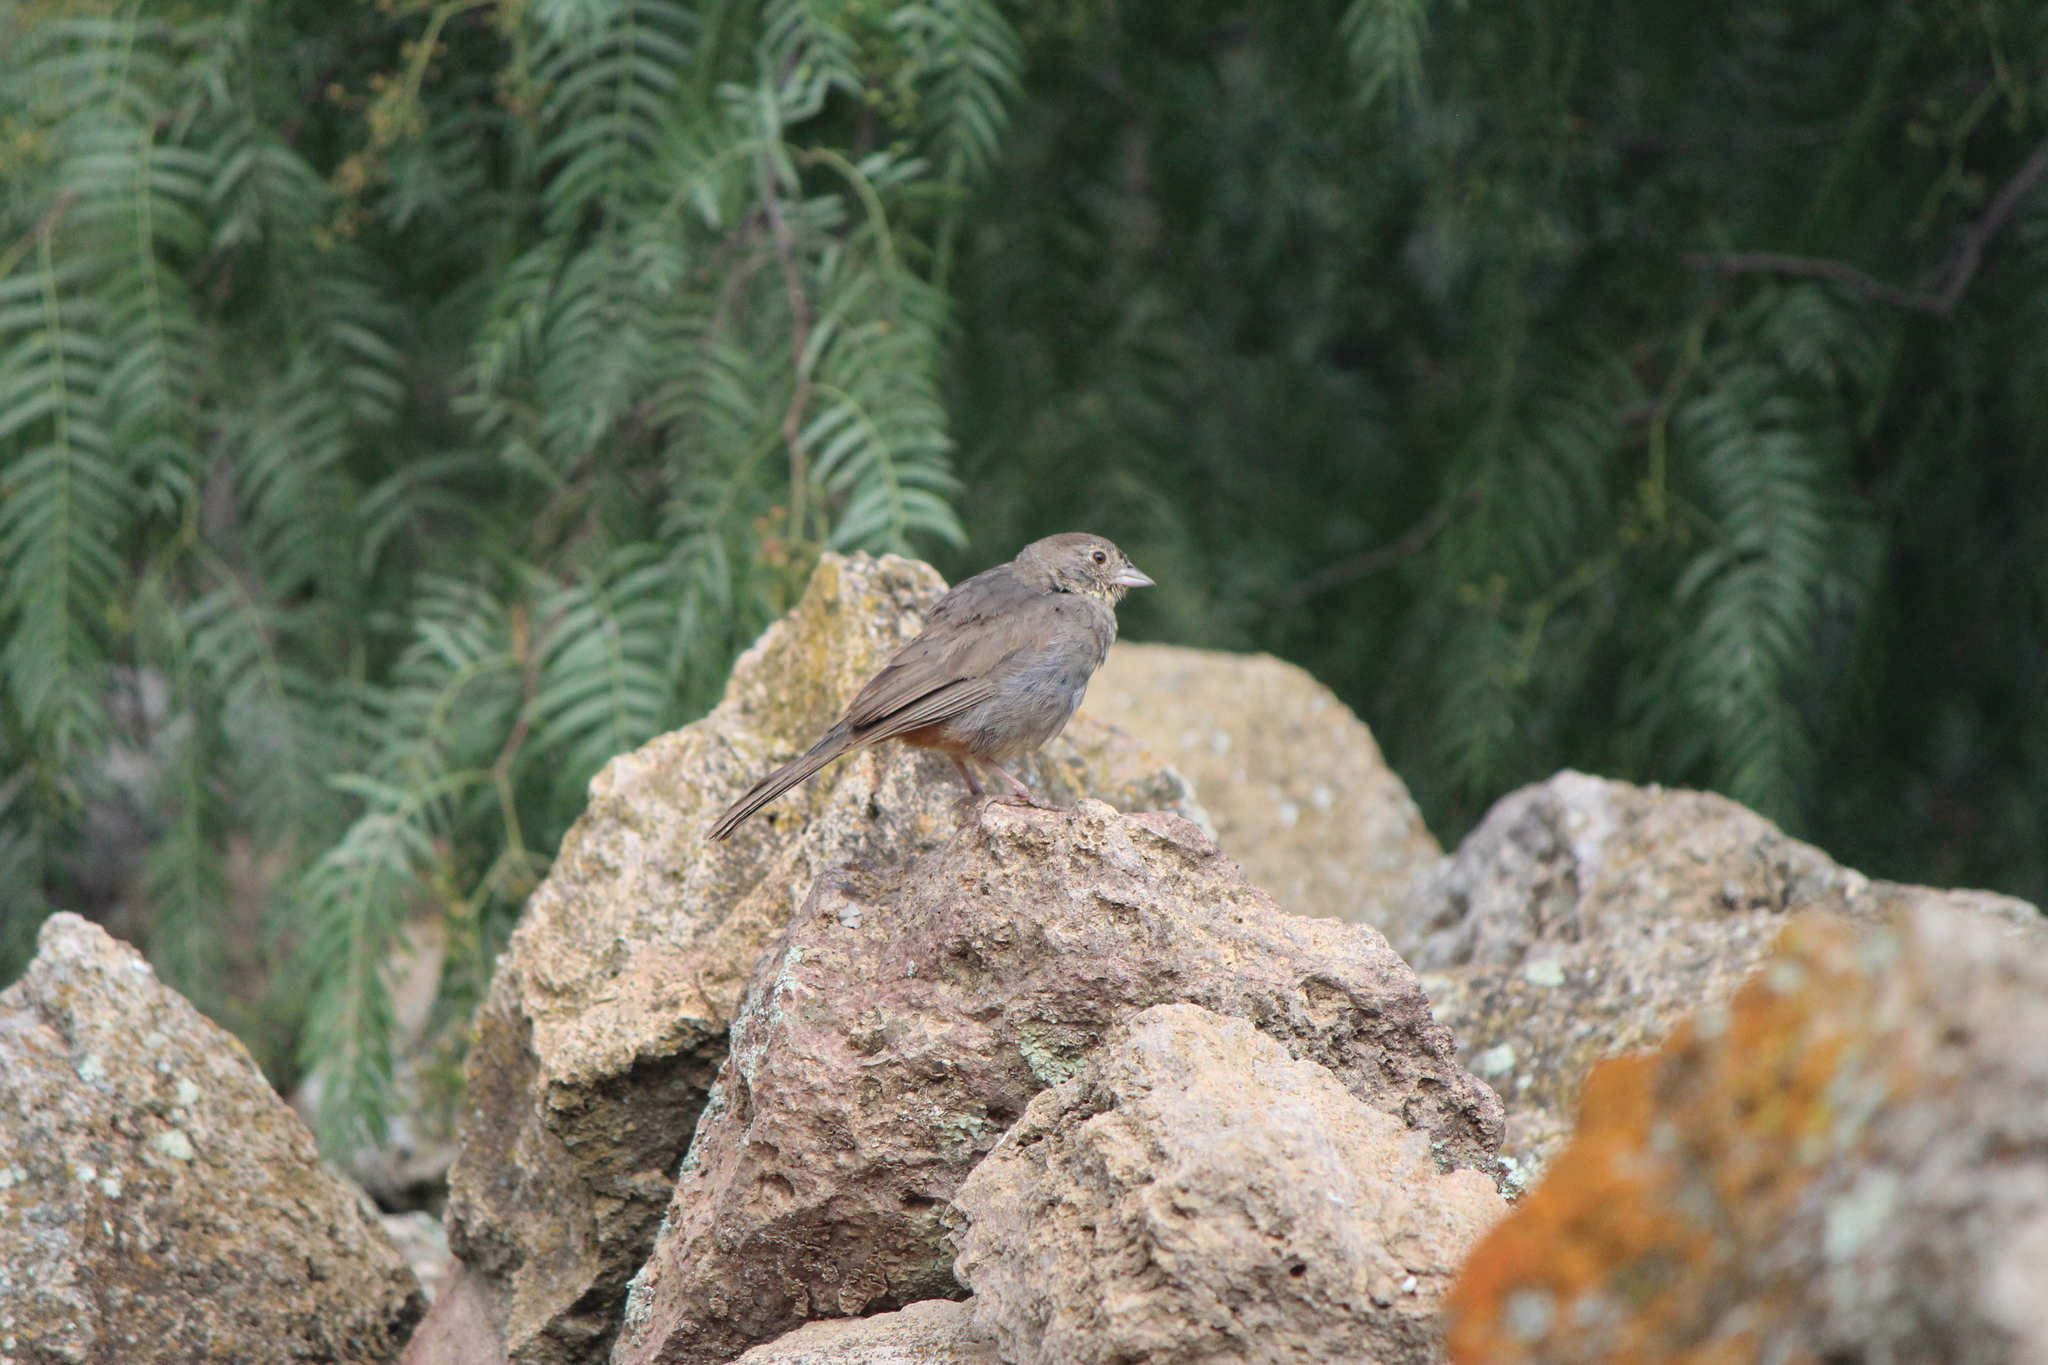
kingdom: Animalia
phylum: Chordata
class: Aves
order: Passeriformes
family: Passerellidae
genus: Melozone
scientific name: Melozone fusca
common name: Canyon towhee
